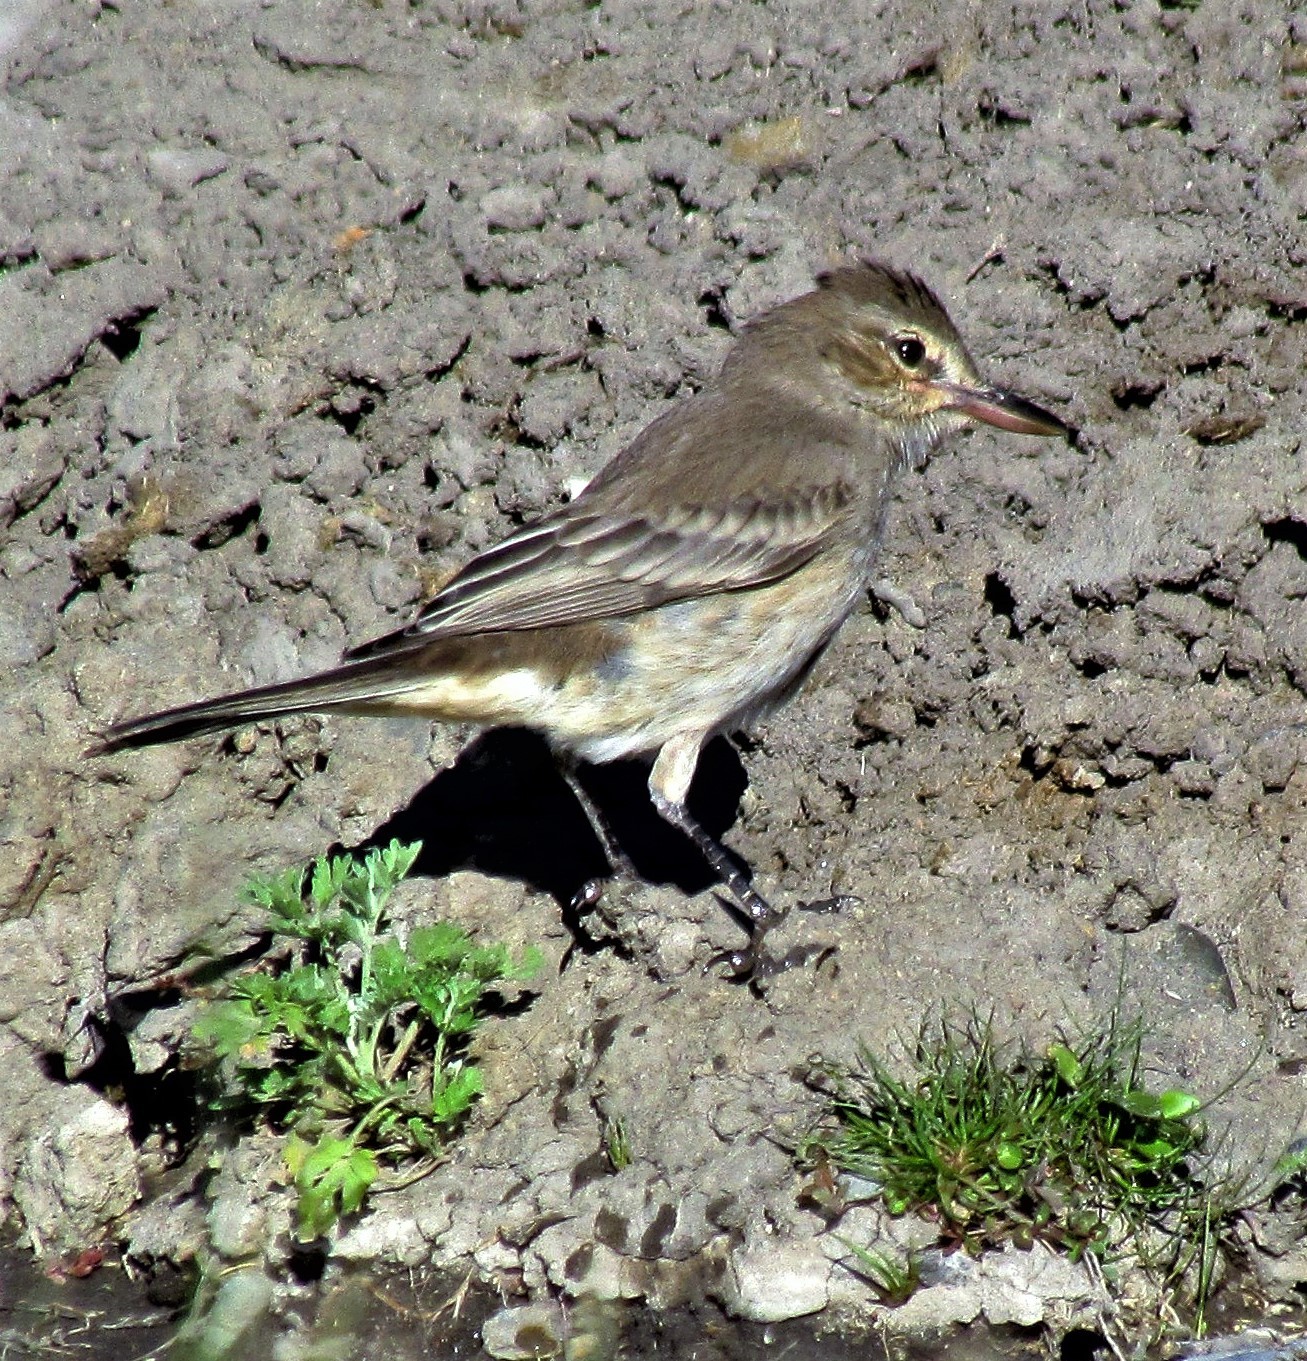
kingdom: Animalia
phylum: Chordata
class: Aves
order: Passeriformes
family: Tyrannidae
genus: Agriornis
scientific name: Agriornis micropterus
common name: Grey-bellied shrike-tyrant
